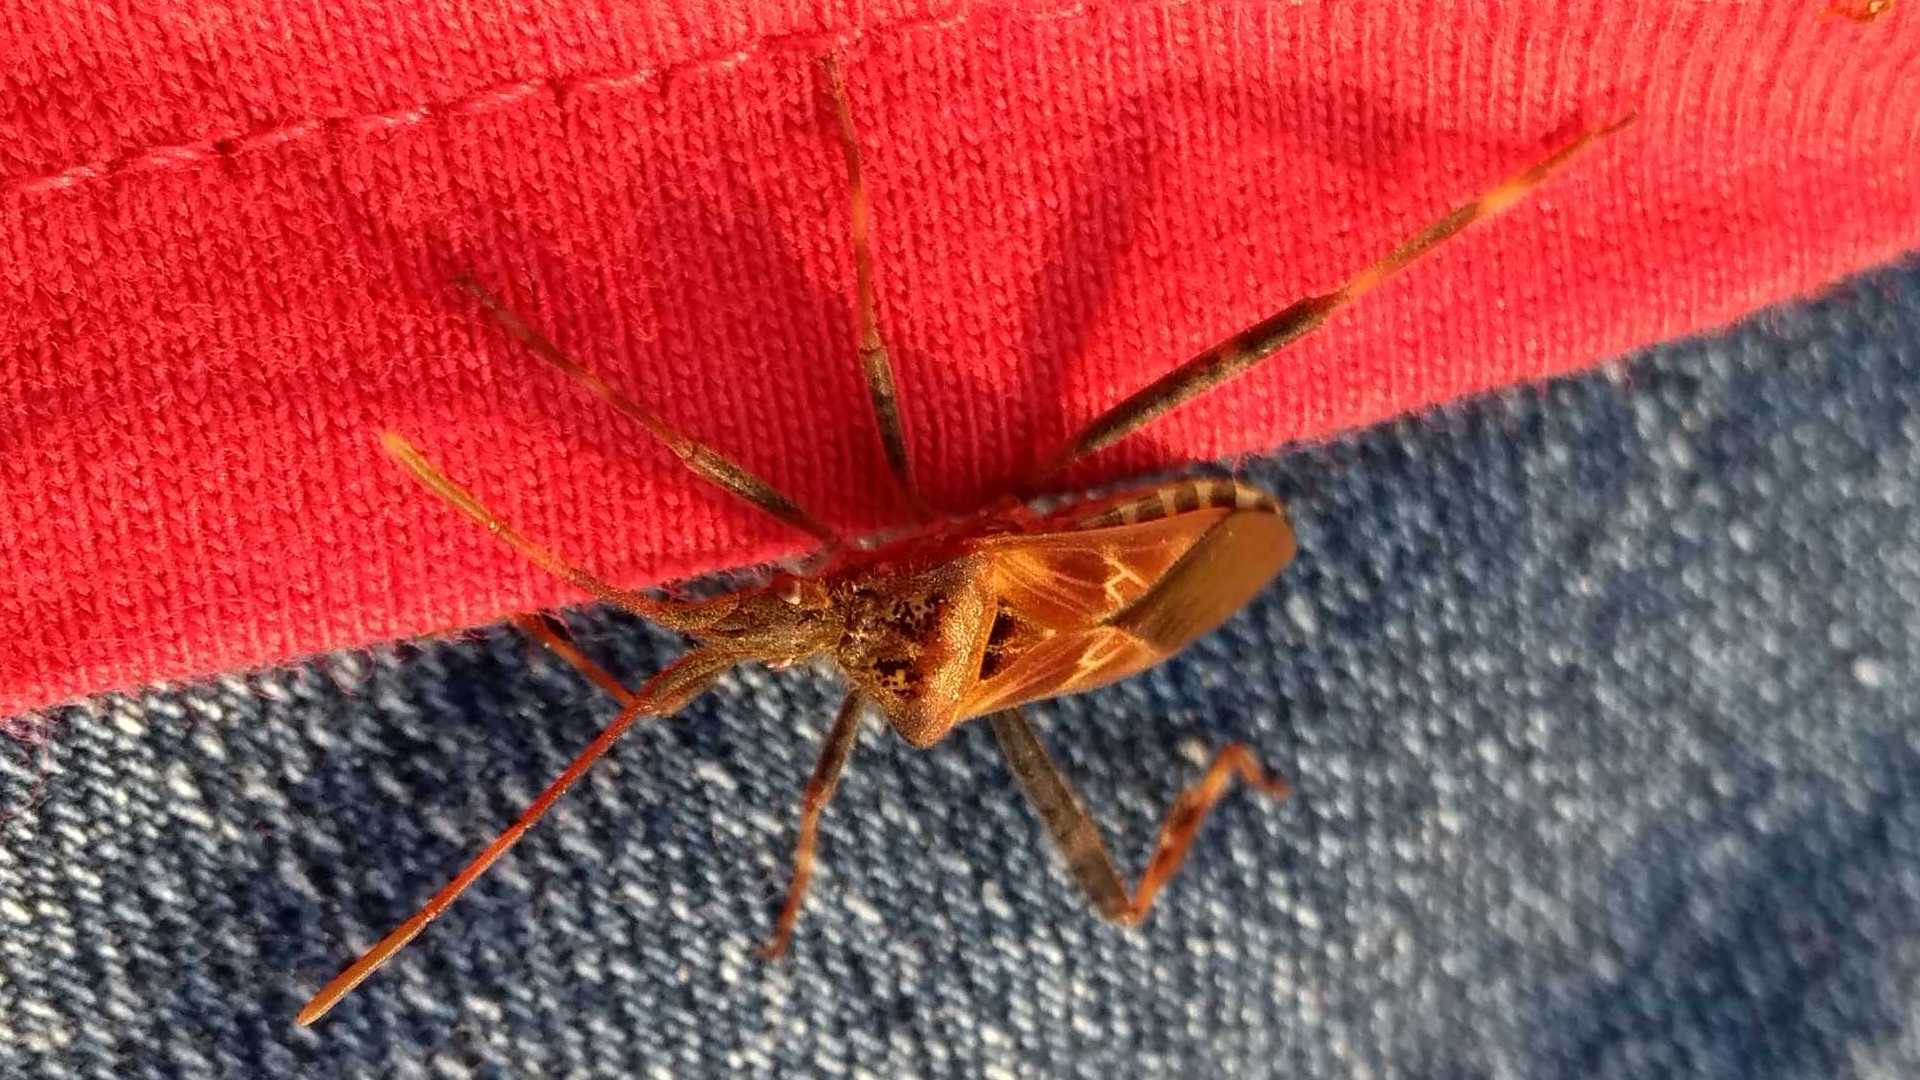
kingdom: Animalia
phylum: Arthropoda
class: Insecta
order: Hemiptera
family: Coreidae
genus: Leptoglossus
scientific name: Leptoglossus occidentalis
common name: Western conifer-seed bug
